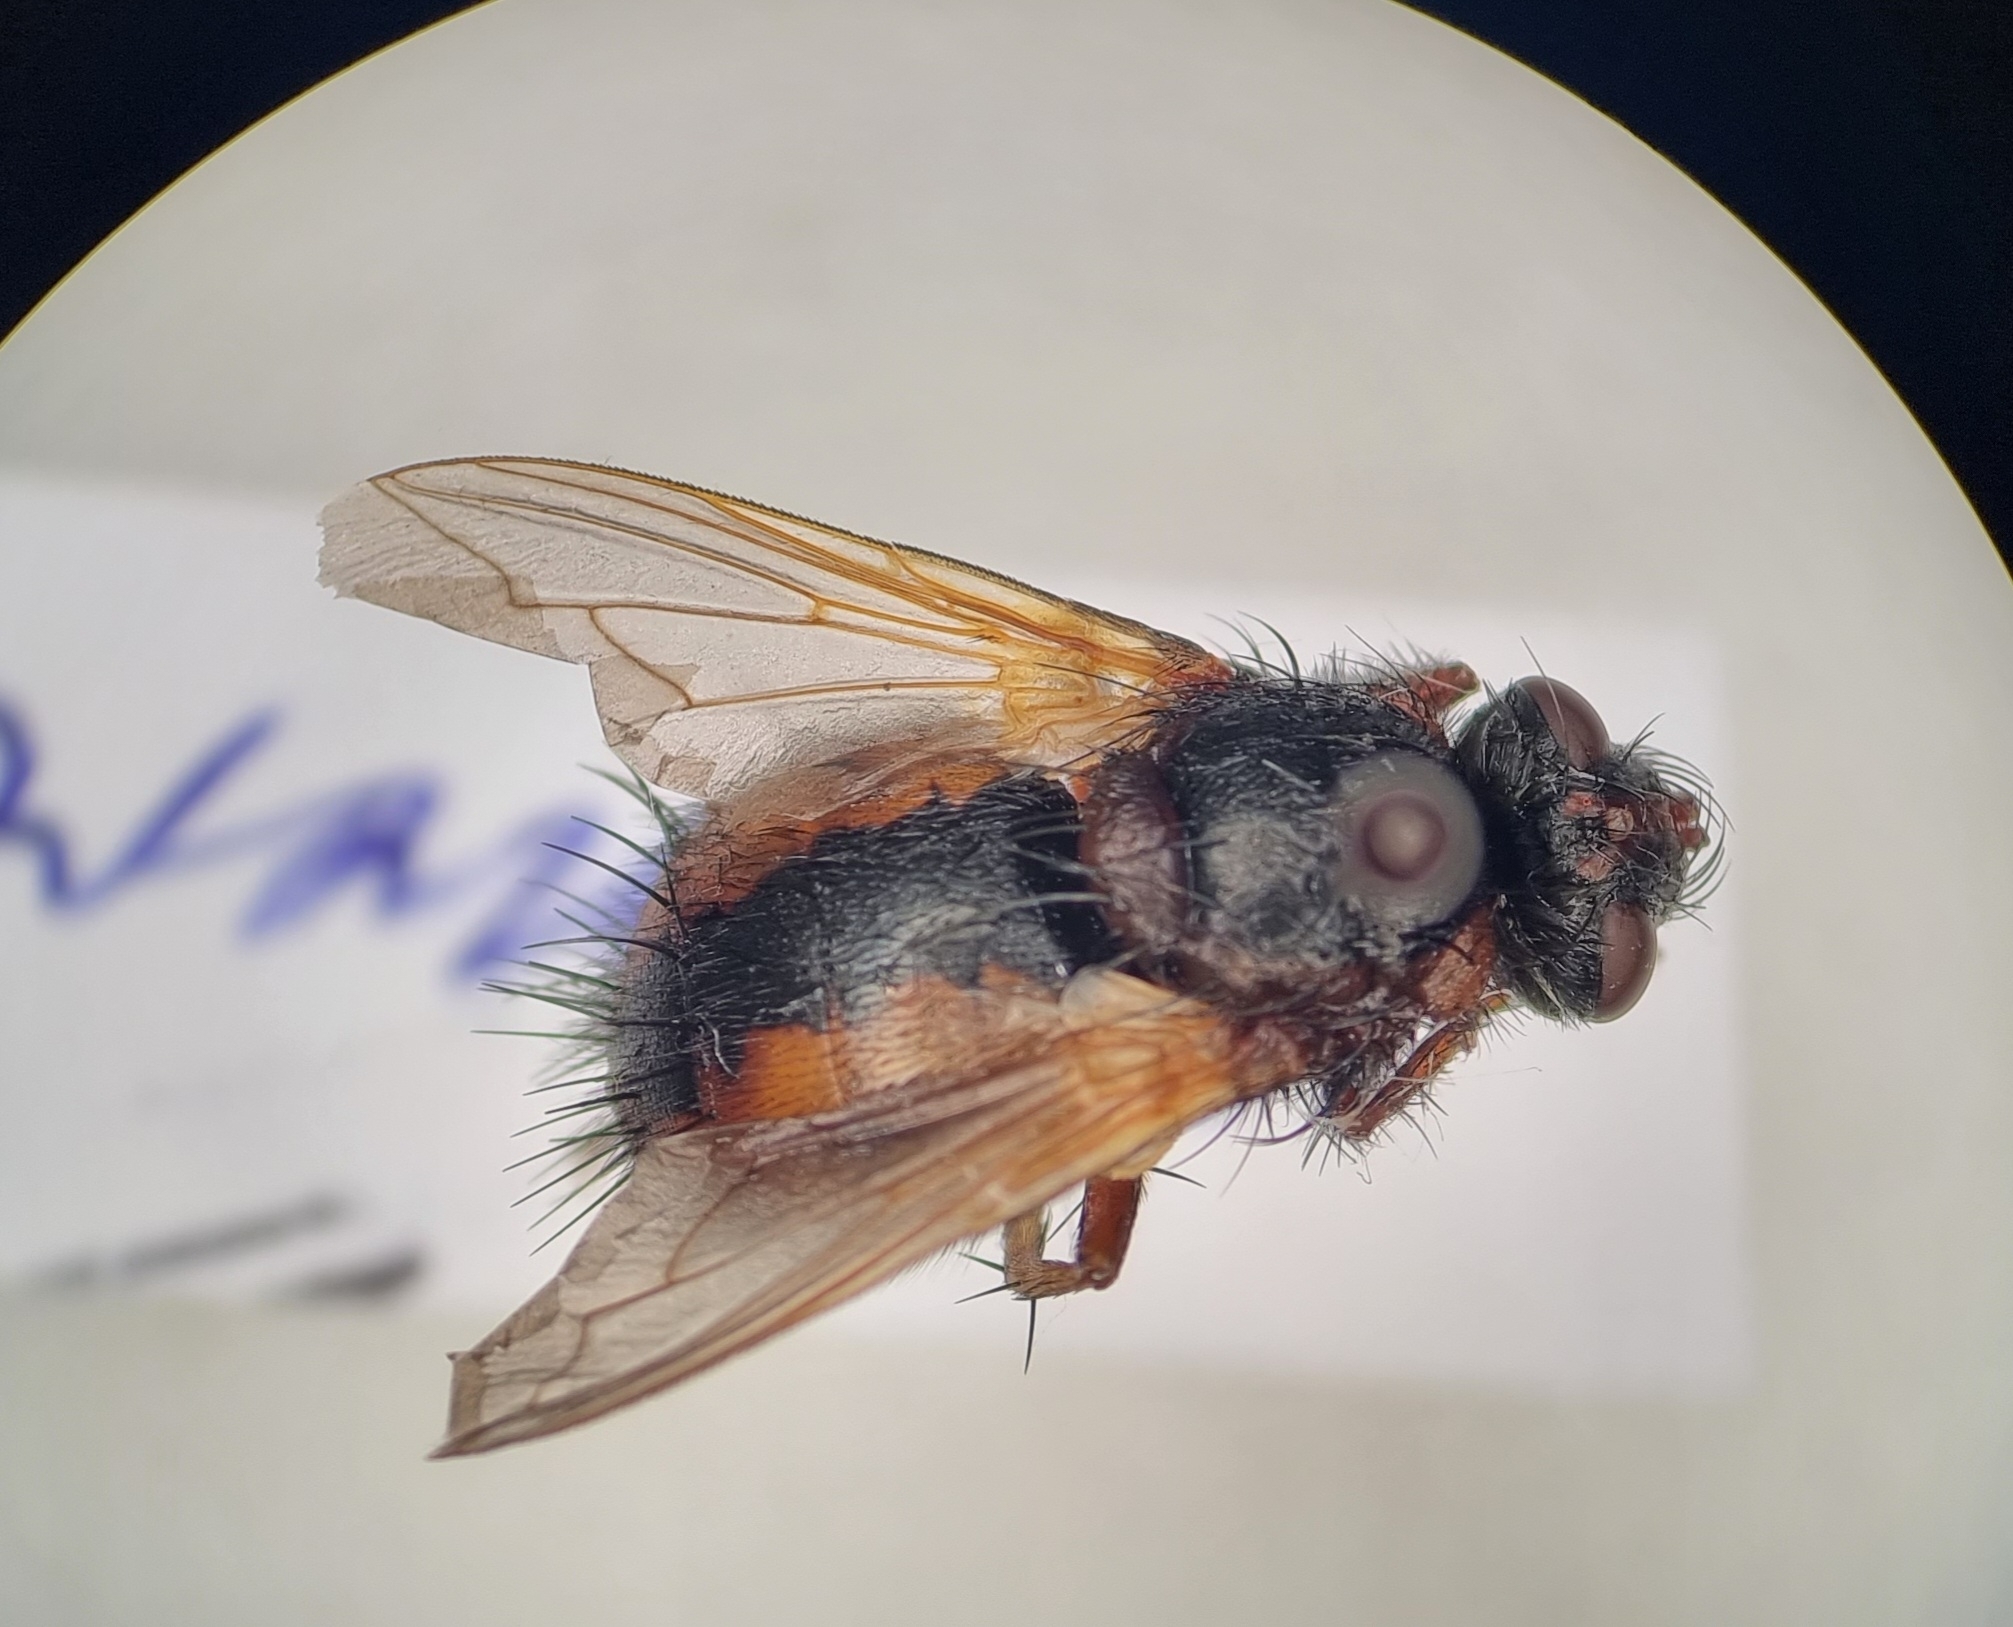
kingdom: Animalia
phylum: Arthropoda
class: Insecta
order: Diptera
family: Tachinidae
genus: Tachina
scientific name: Tachina fera
